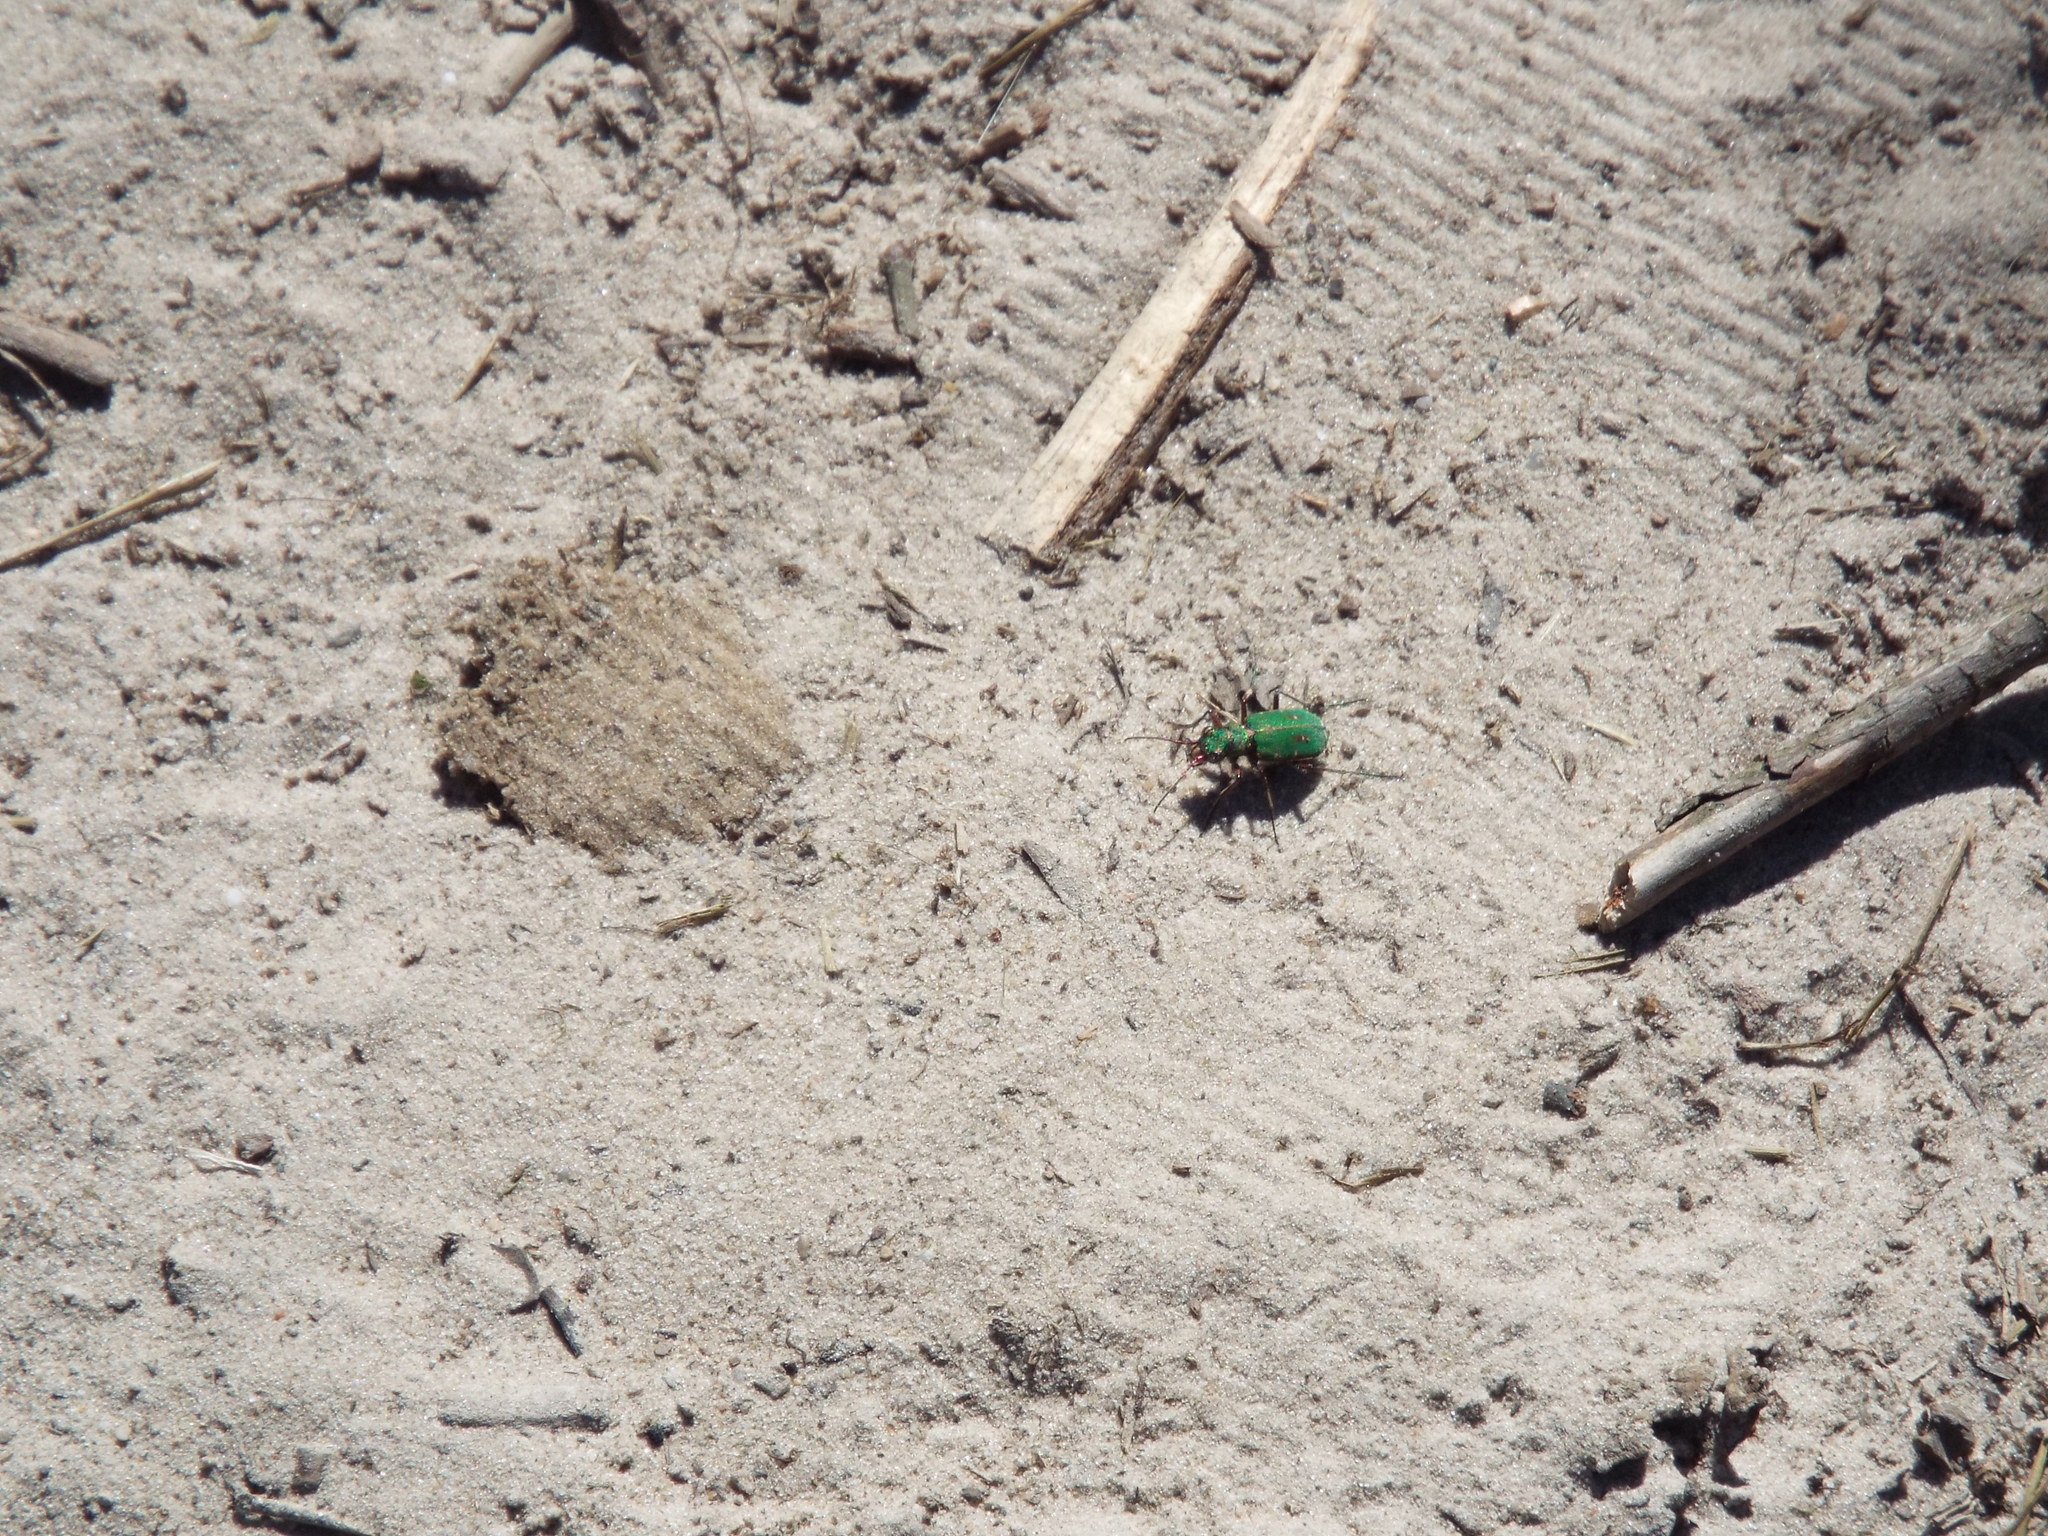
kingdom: Animalia
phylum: Arthropoda
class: Insecta
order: Coleoptera
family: Carabidae
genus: Cicindela
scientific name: Cicindela campestris
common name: Common tiger beetle
